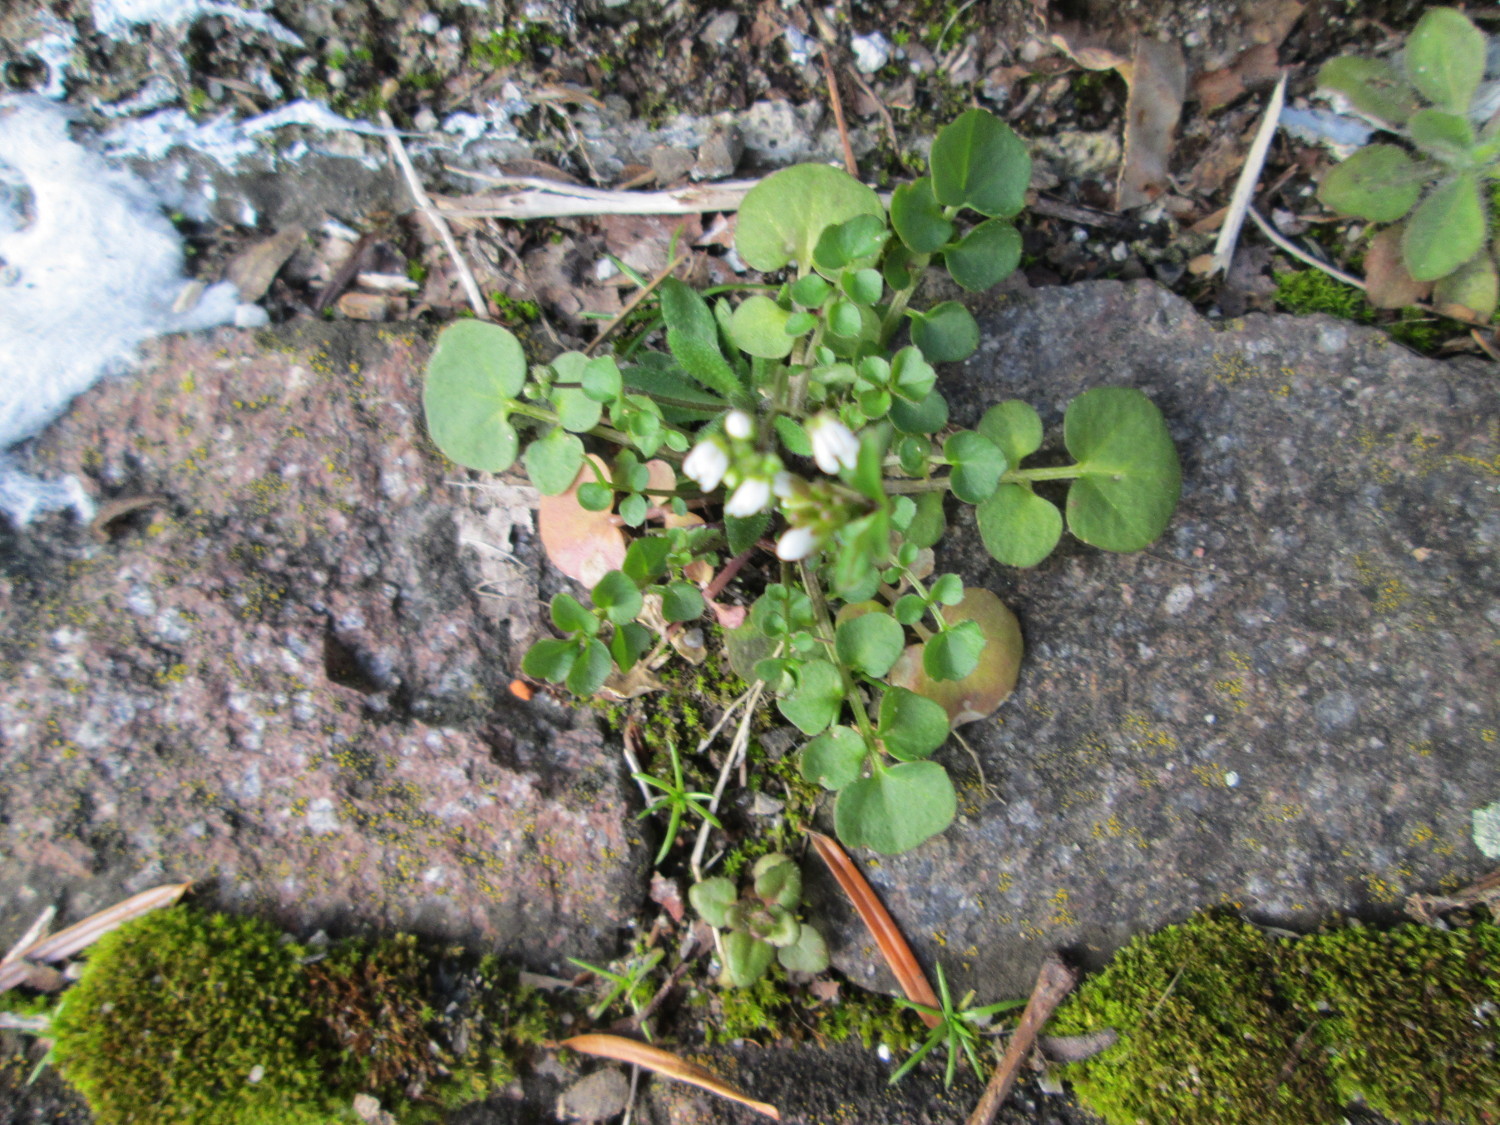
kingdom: Plantae
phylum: Tracheophyta
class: Magnoliopsida
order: Brassicales
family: Brassicaceae
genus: Cardamine
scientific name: Cardamine hirsuta
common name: Hairy bittercress
